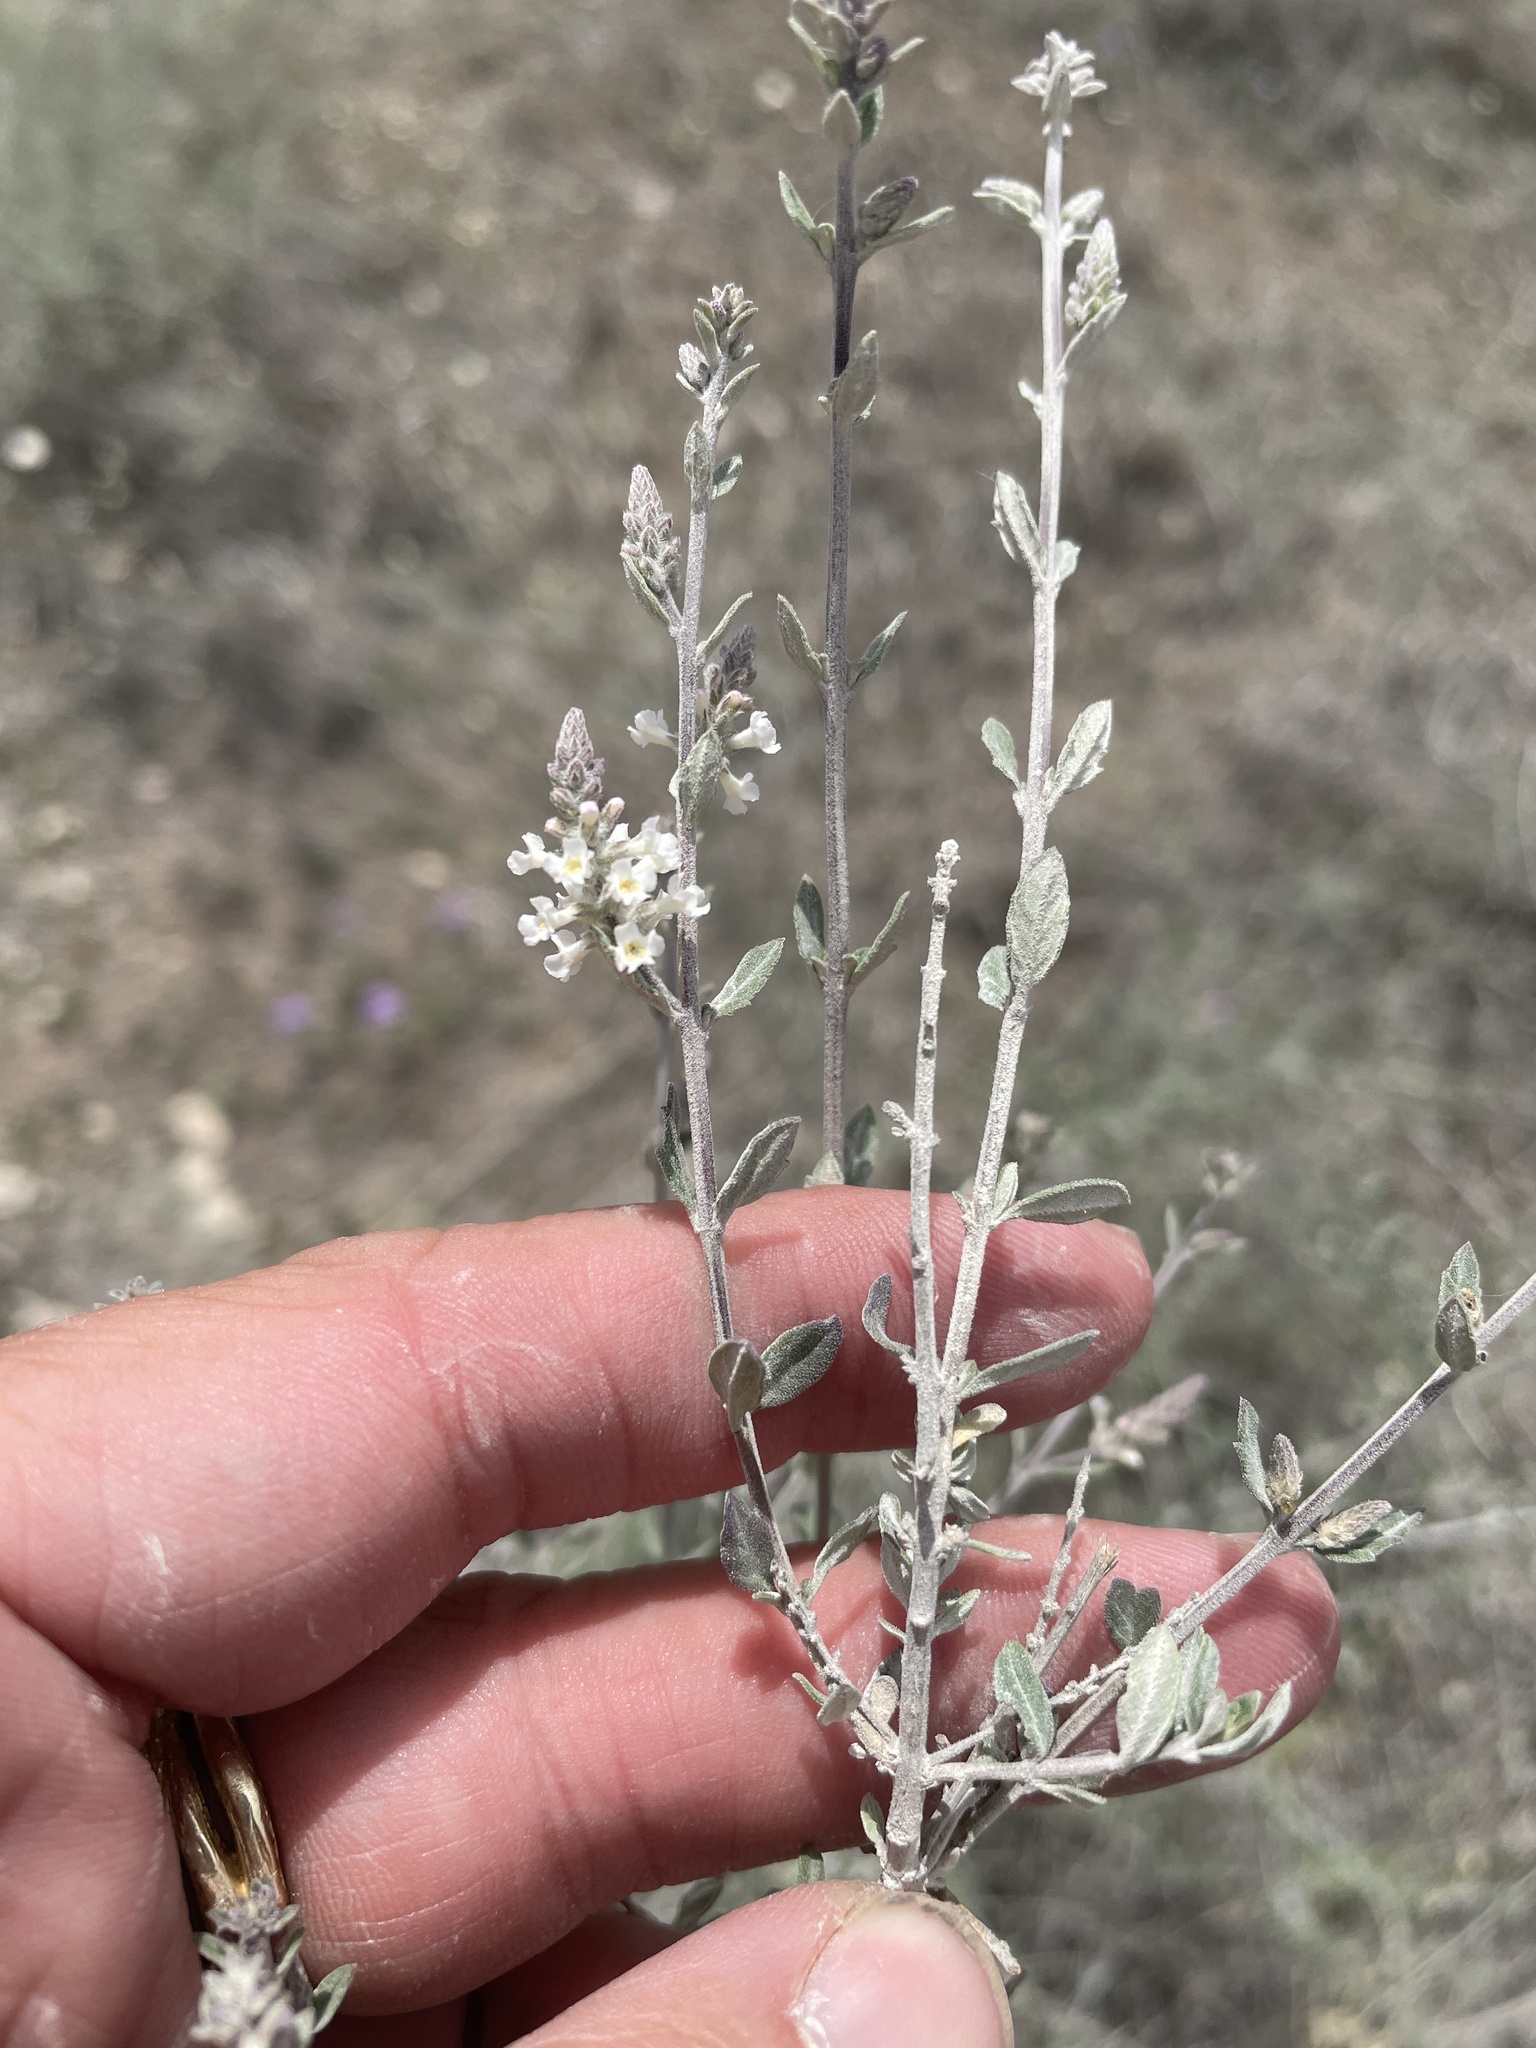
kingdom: Plantae
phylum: Tracheophyta
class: Magnoliopsida
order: Lamiales
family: Verbenaceae
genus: Aloysia
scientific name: Aloysia gratissima
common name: Common bee-brush
